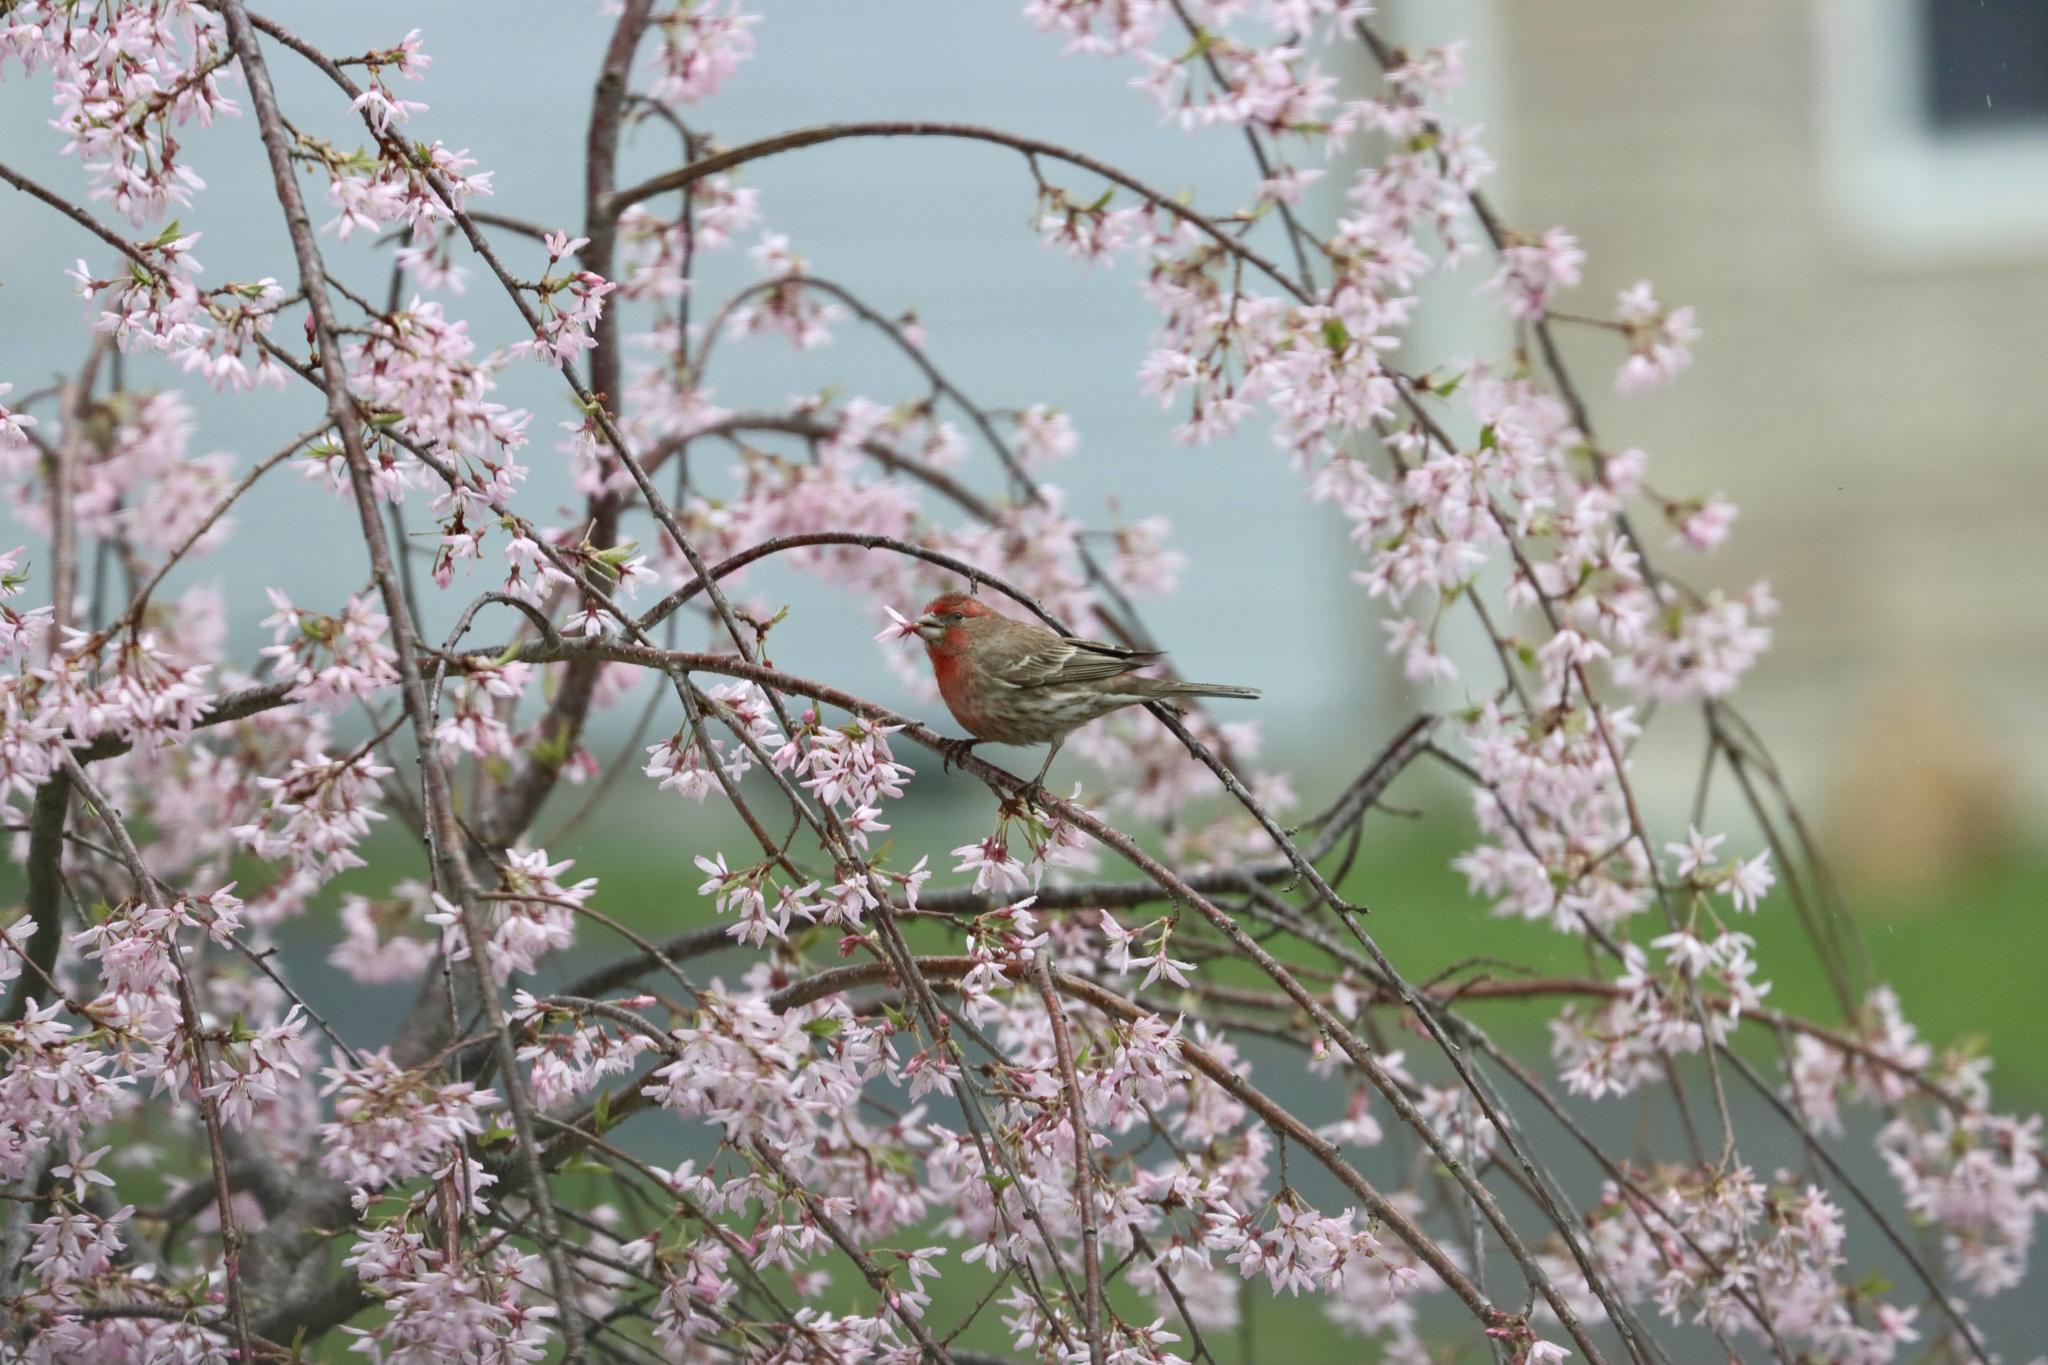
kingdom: Animalia
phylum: Chordata
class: Aves
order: Passeriformes
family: Fringillidae
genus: Haemorhous
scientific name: Haemorhous mexicanus
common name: House finch
